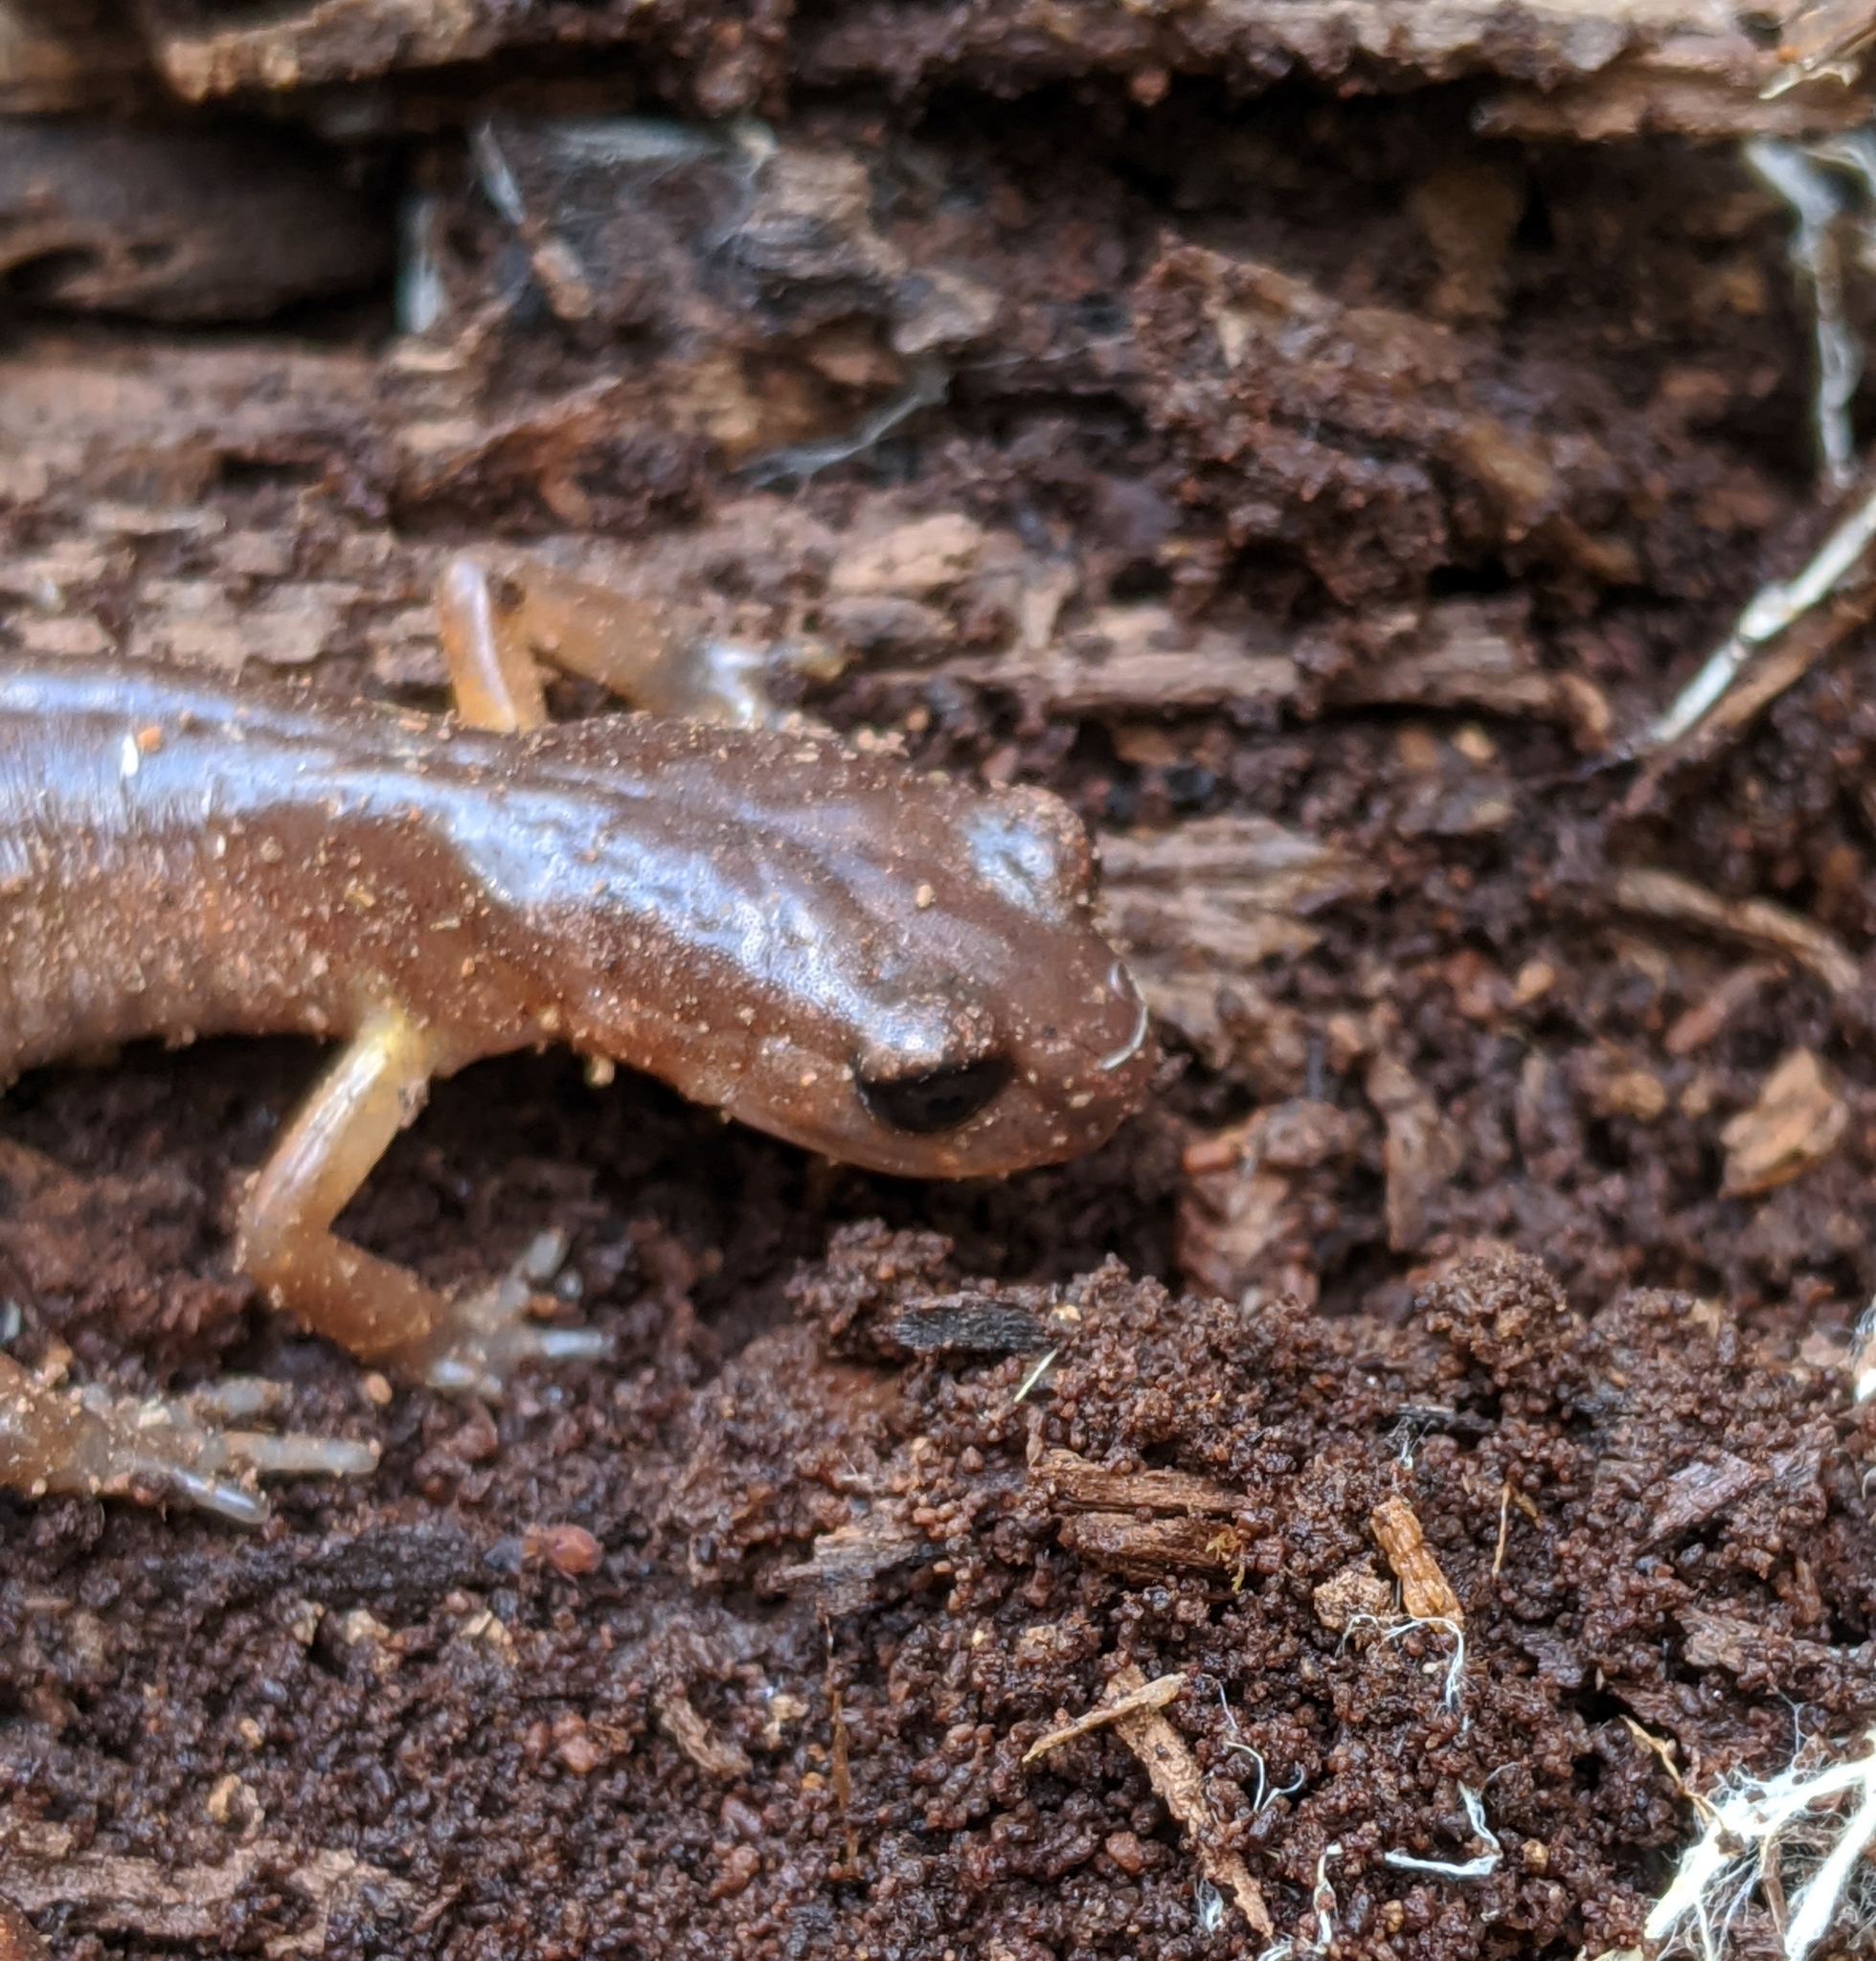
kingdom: Animalia
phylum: Chordata
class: Amphibia
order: Caudata
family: Plethodontidae
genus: Ensatina
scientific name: Ensatina eschscholtzii
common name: Ensatina
